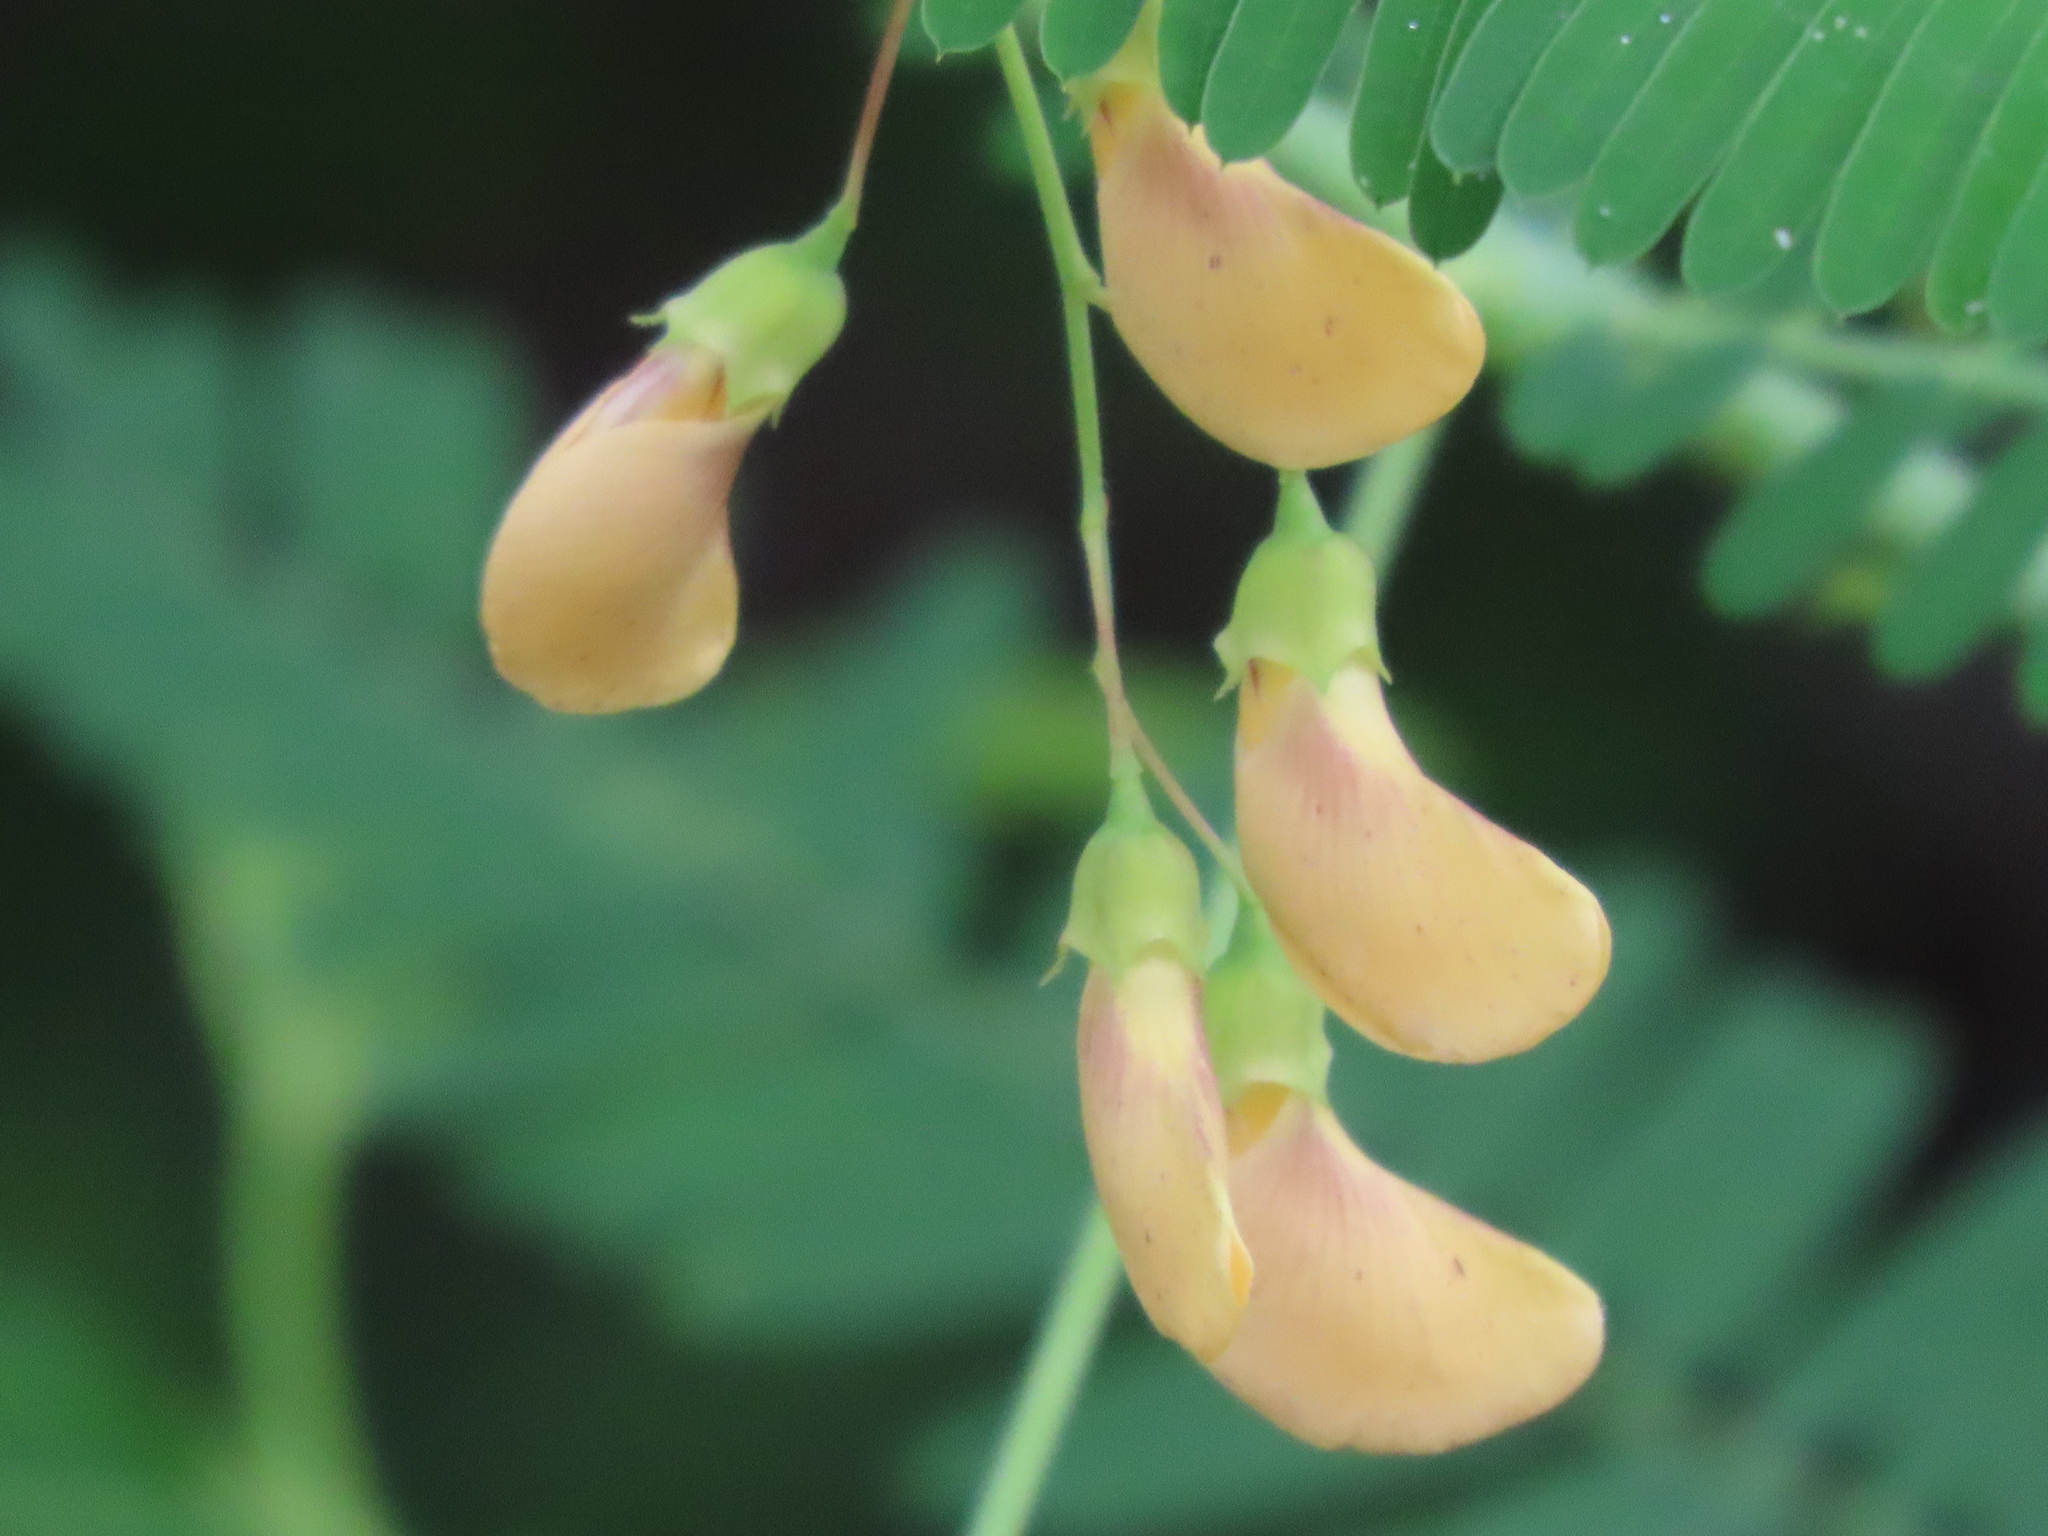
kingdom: Plantae
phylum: Tracheophyta
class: Magnoliopsida
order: Fabales
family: Fabaceae
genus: Sesbania
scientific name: Sesbania herbacea
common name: Bigpod sesbania
